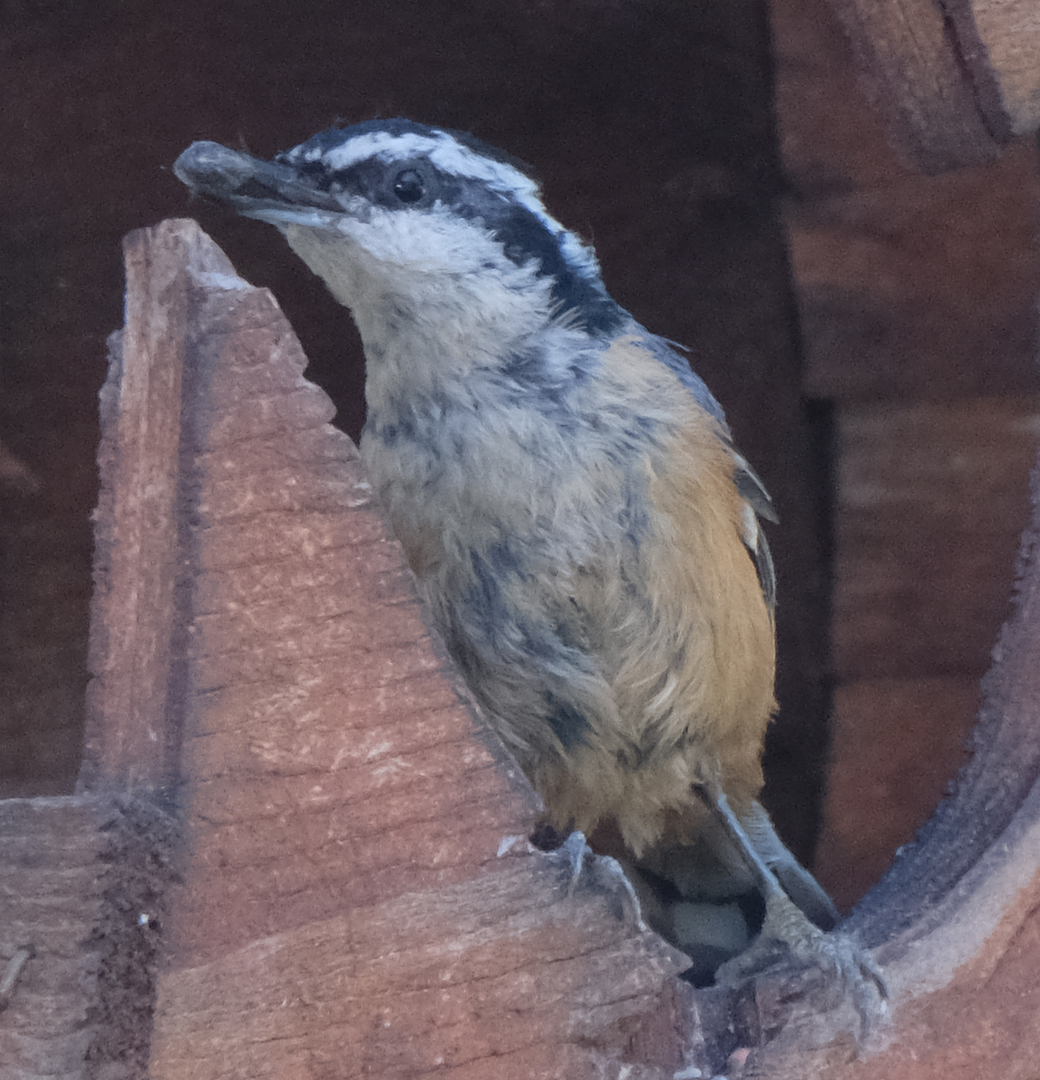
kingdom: Animalia
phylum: Chordata
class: Aves
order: Passeriformes
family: Sittidae
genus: Sitta
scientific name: Sitta canadensis
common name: Red-breasted nuthatch
